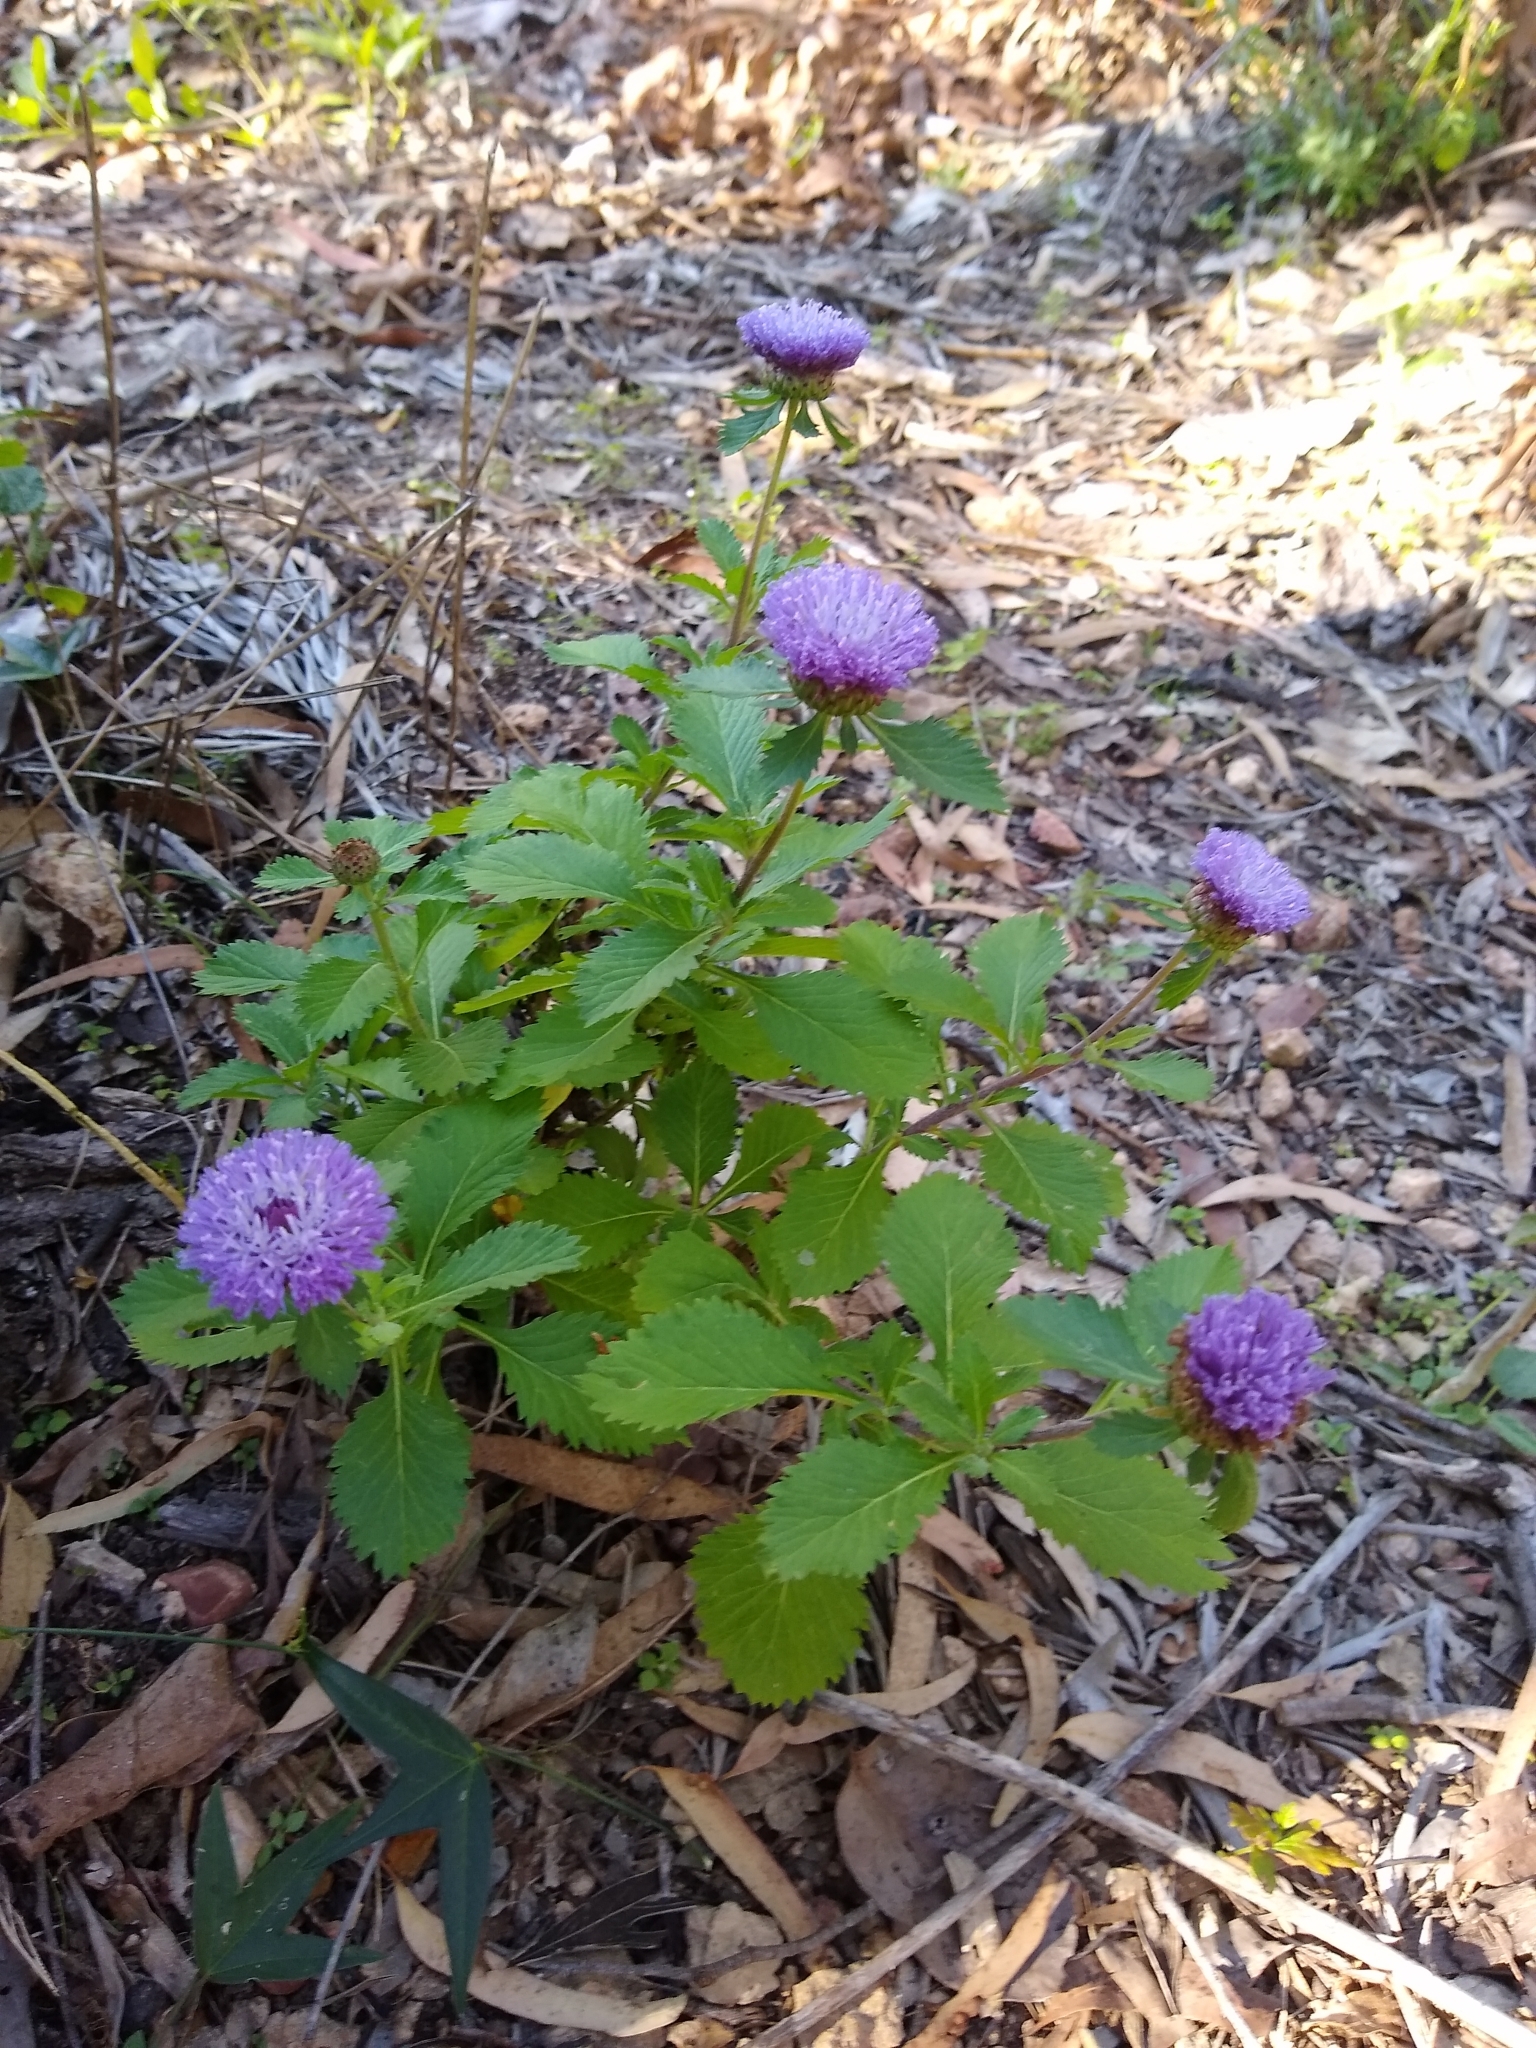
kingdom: Plantae
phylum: Tracheophyta
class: Magnoliopsida
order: Asterales
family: Asteraceae
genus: Centratherum
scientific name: Centratherum punctatum
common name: Larkdaisy
